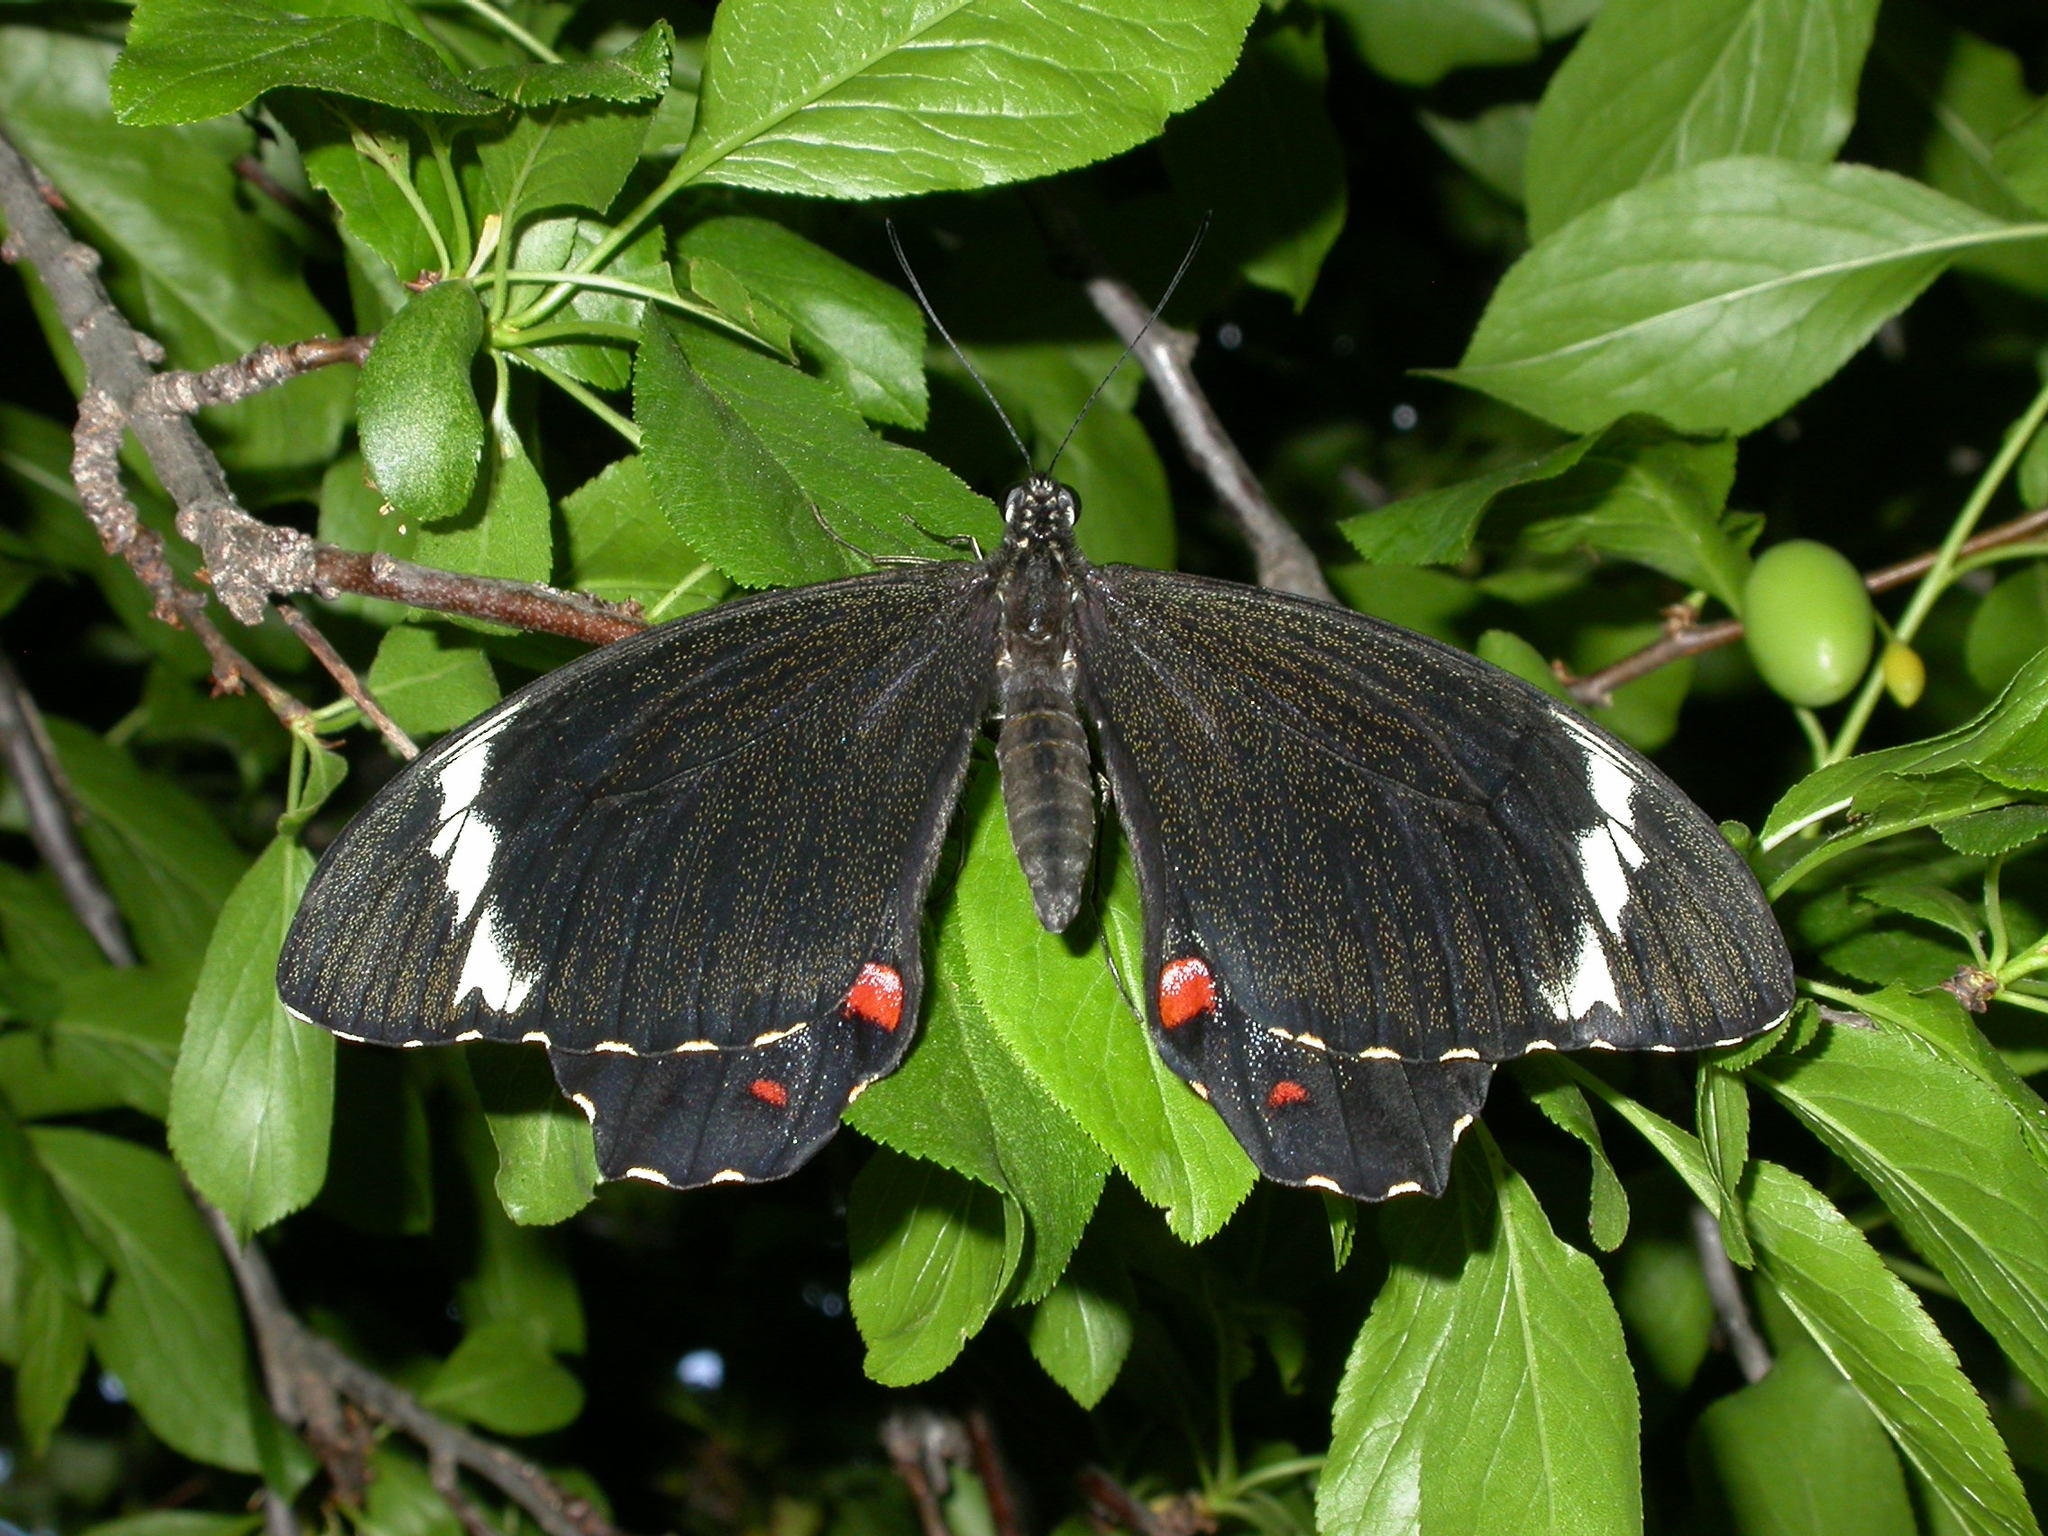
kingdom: Animalia
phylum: Arthropoda
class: Insecta
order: Lepidoptera
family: Papilionidae
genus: Papilio
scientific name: Papilio aegeus
